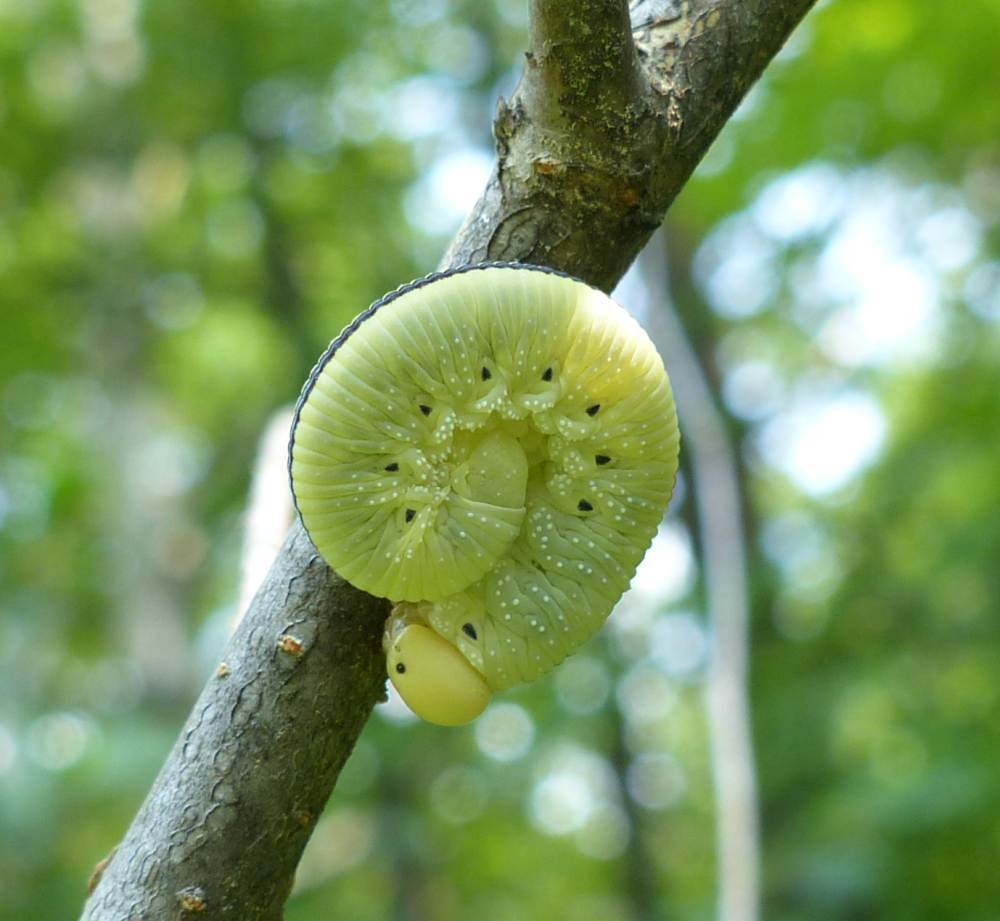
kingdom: Animalia
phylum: Arthropoda
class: Insecta
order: Hymenoptera
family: Cimbicidae
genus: Cimbex
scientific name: Cimbex americana
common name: Elm sawfly
